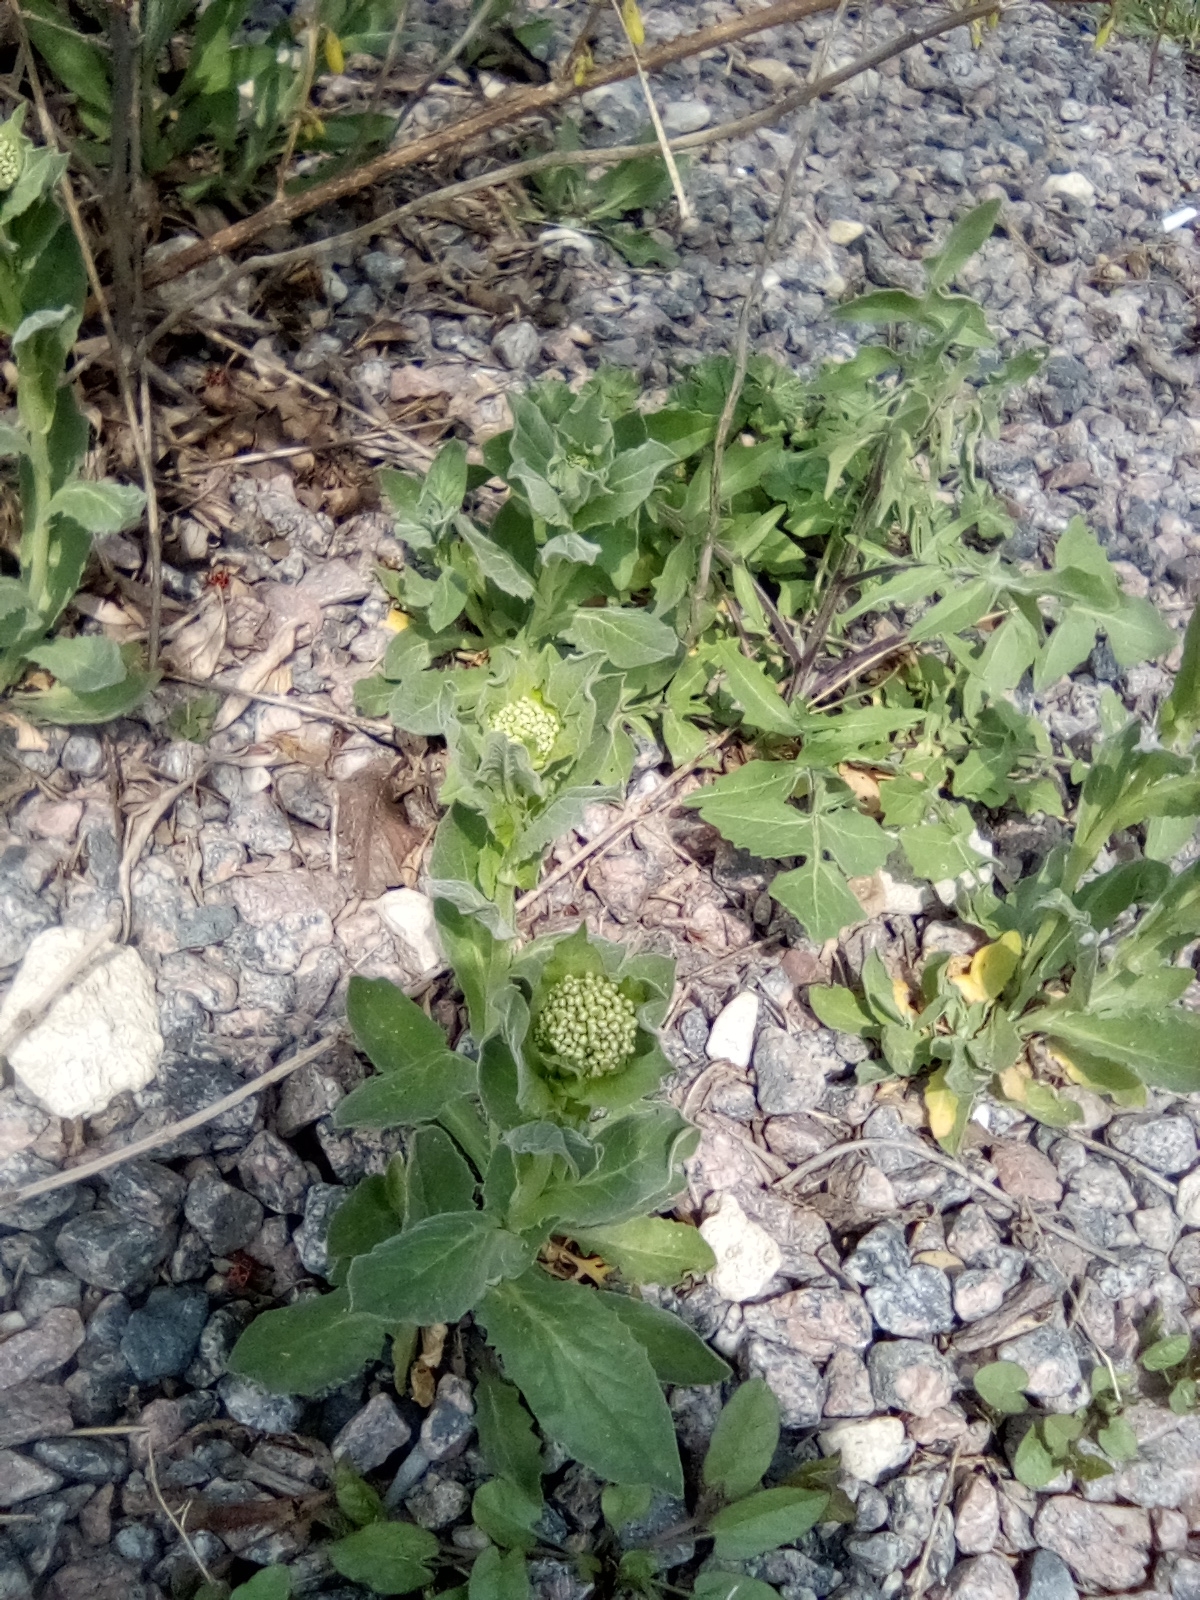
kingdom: Plantae
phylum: Tracheophyta
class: Magnoliopsida
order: Brassicales
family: Brassicaceae
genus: Lepidium
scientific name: Lepidium draba
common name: Hoary cress
